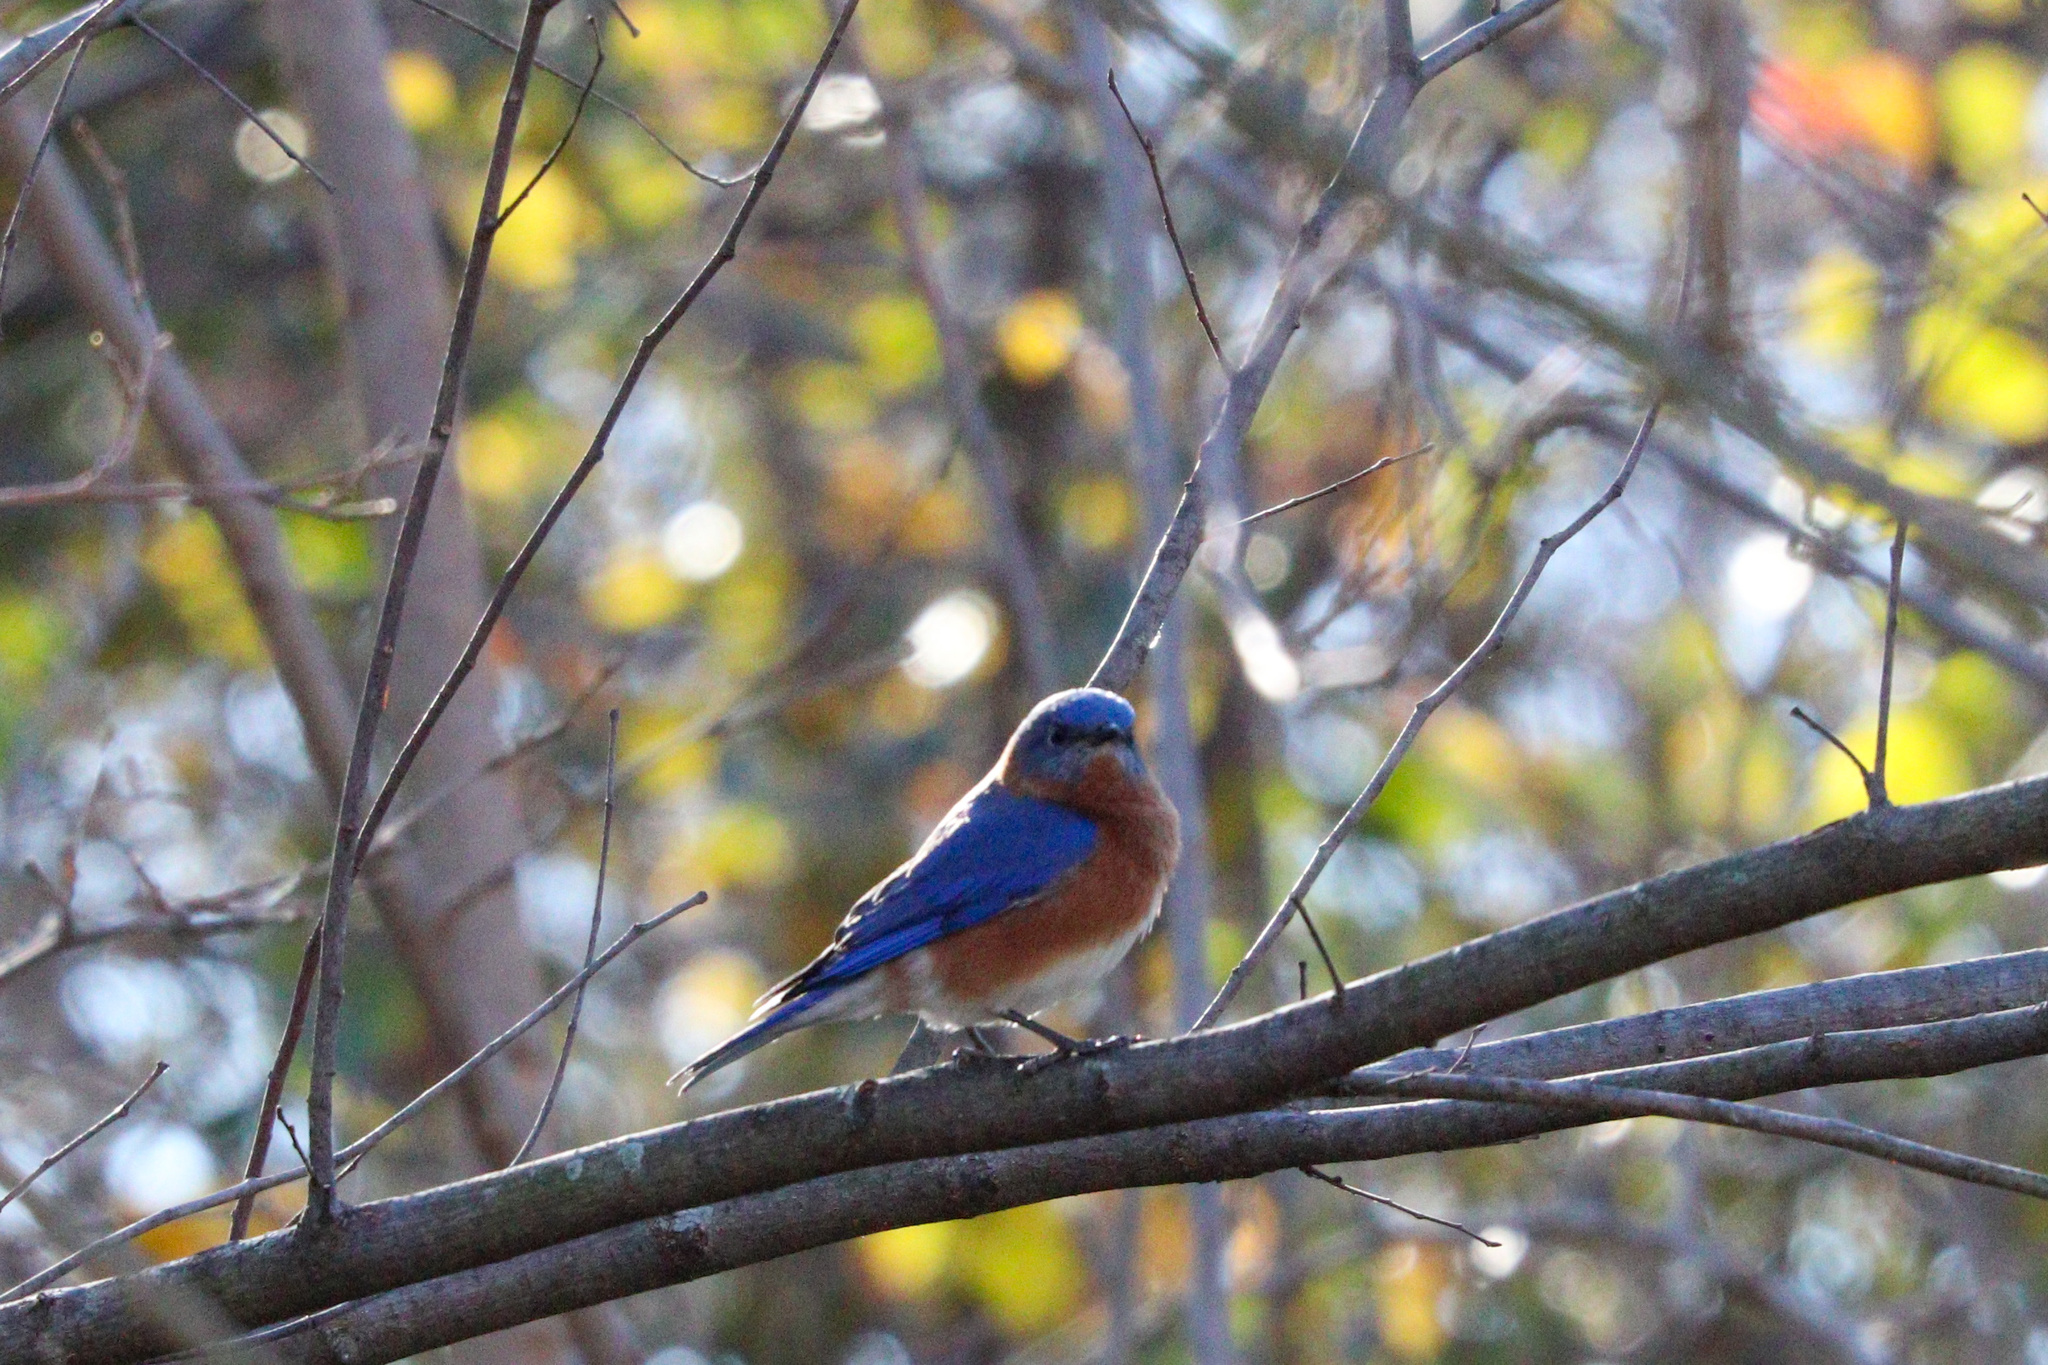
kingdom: Animalia
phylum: Chordata
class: Aves
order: Passeriformes
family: Turdidae
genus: Sialia
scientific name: Sialia sialis
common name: Eastern bluebird
